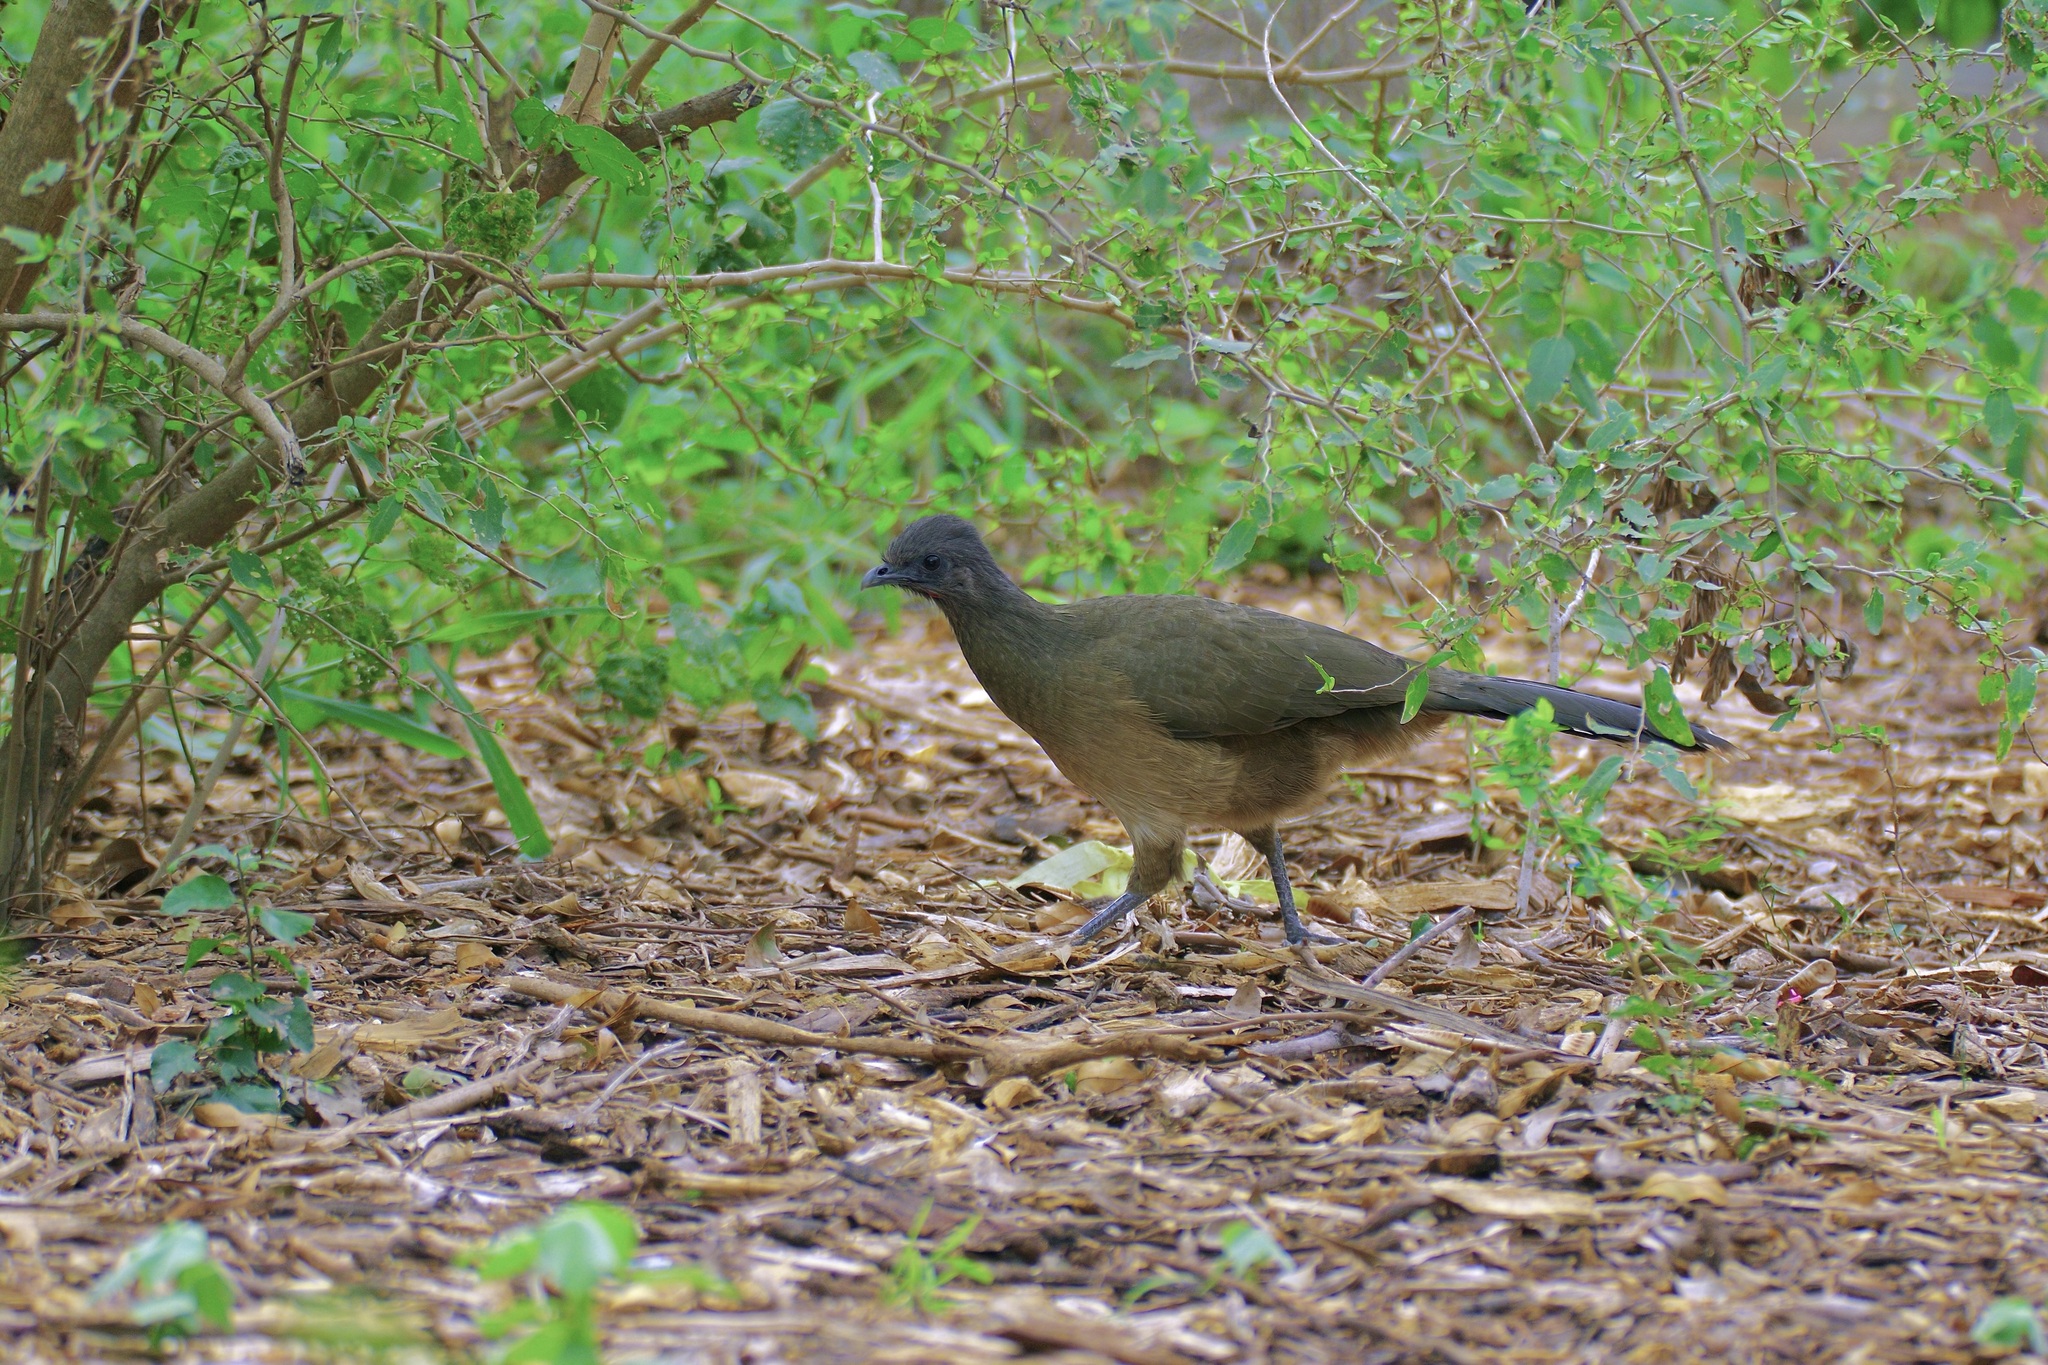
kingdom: Animalia
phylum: Chordata
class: Aves
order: Galliformes
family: Cracidae
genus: Ortalis
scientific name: Ortalis vetula
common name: Plain chachalaca
